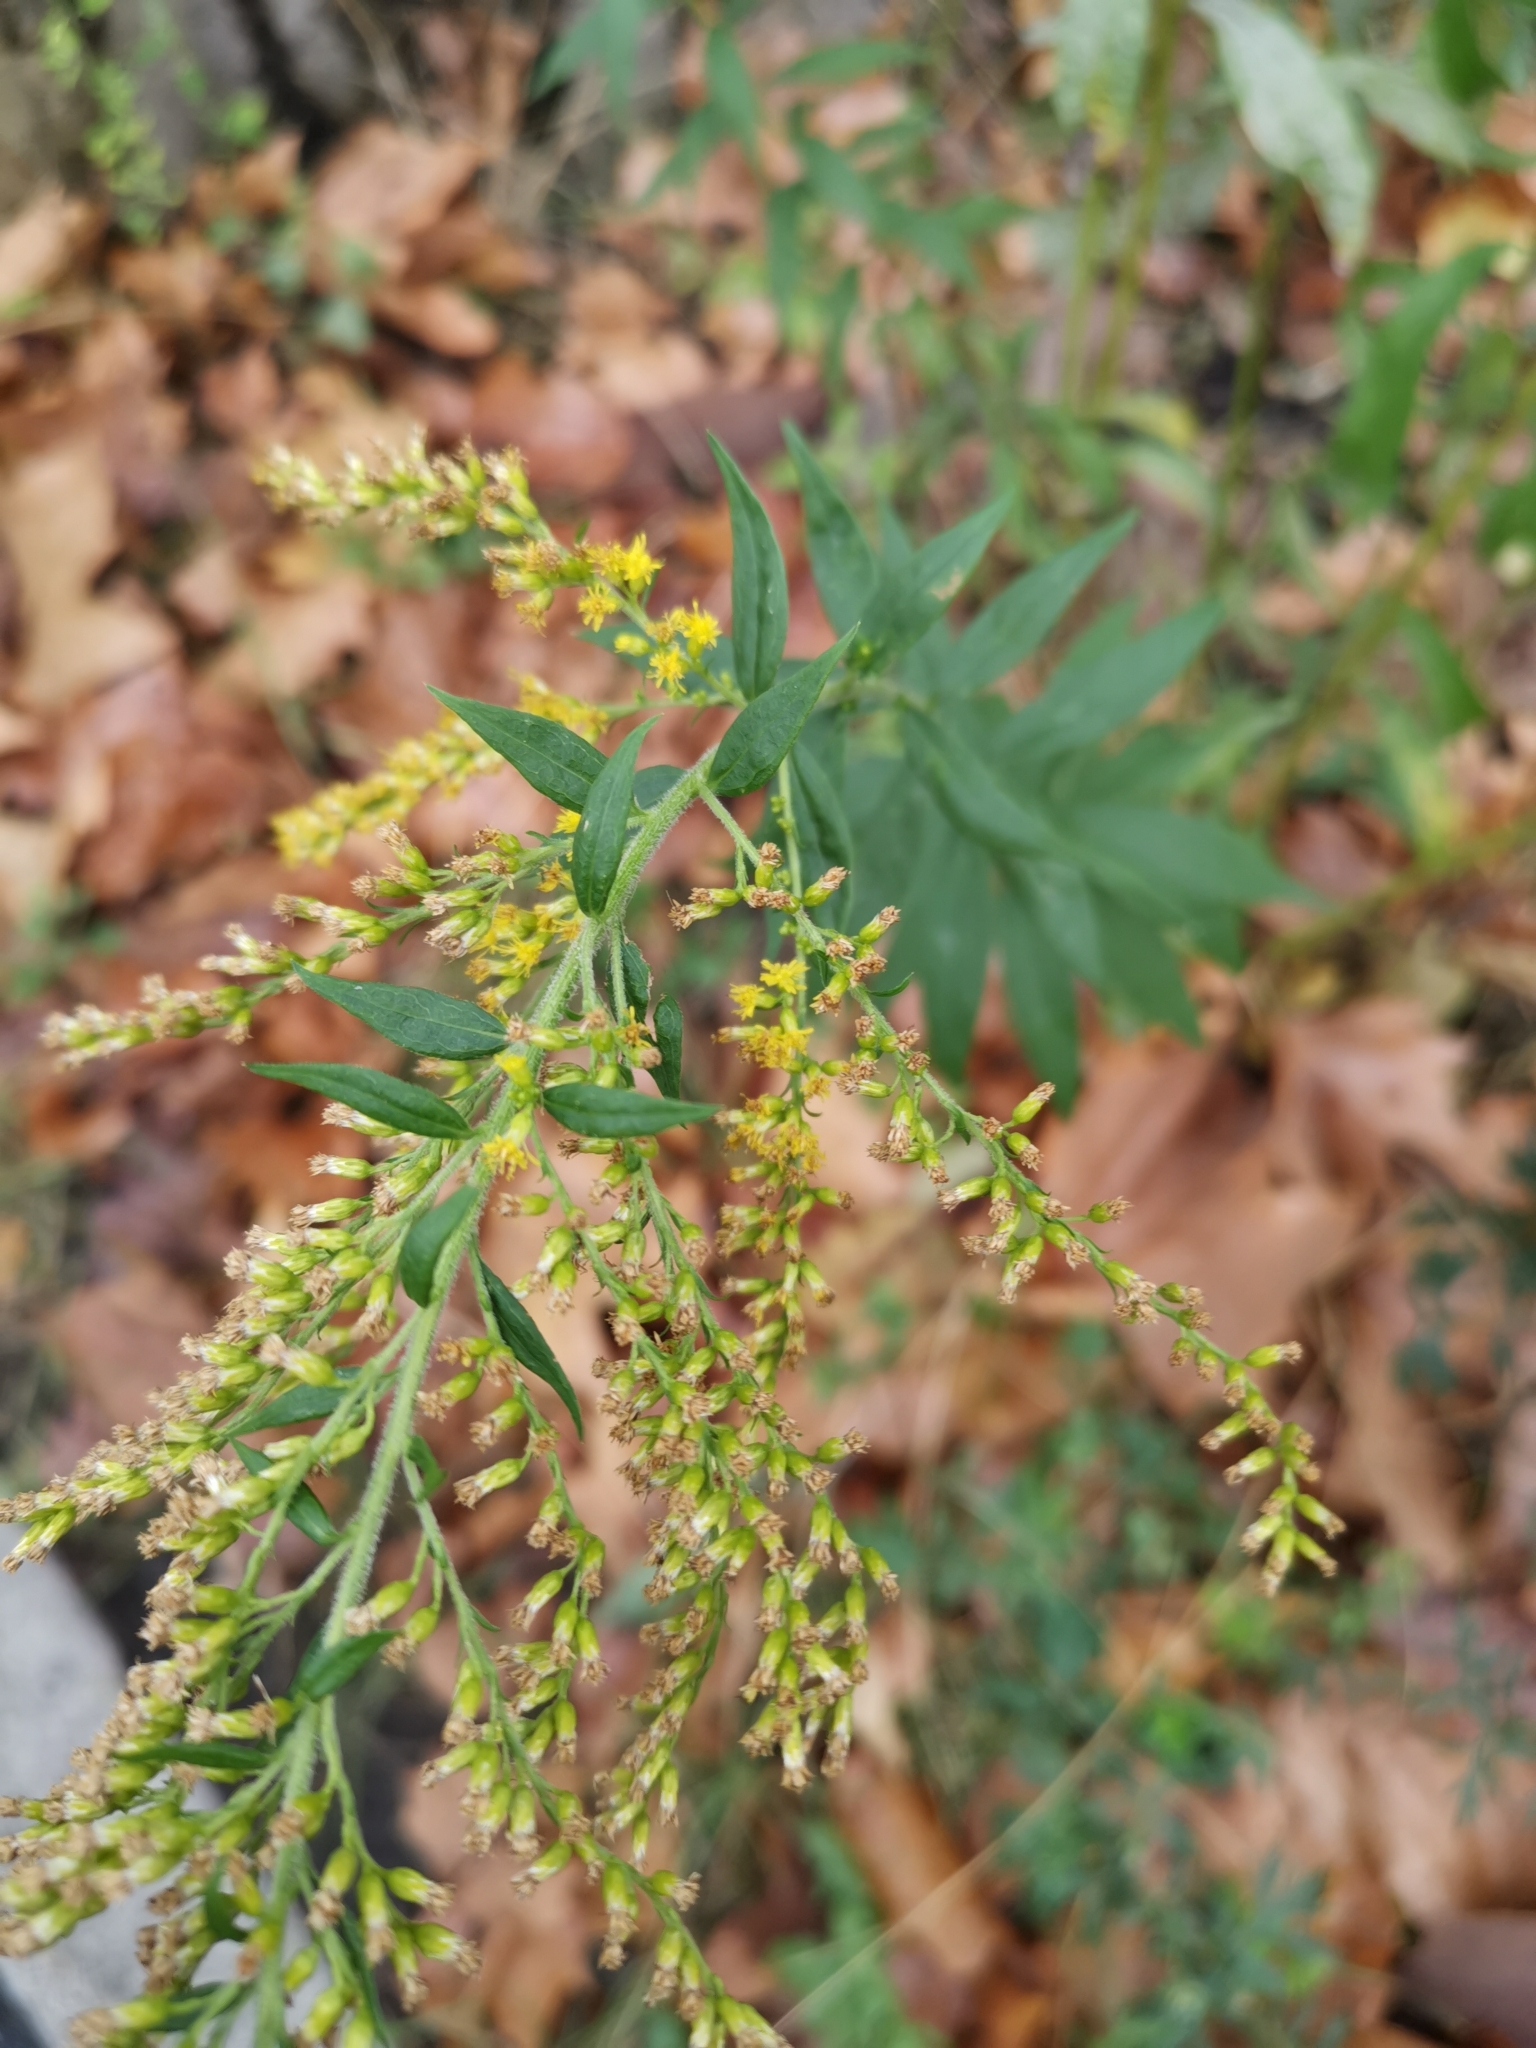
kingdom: Plantae
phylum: Tracheophyta
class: Magnoliopsida
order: Asterales
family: Asteraceae
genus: Solidago
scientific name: Solidago canadensis
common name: Canada goldenrod
